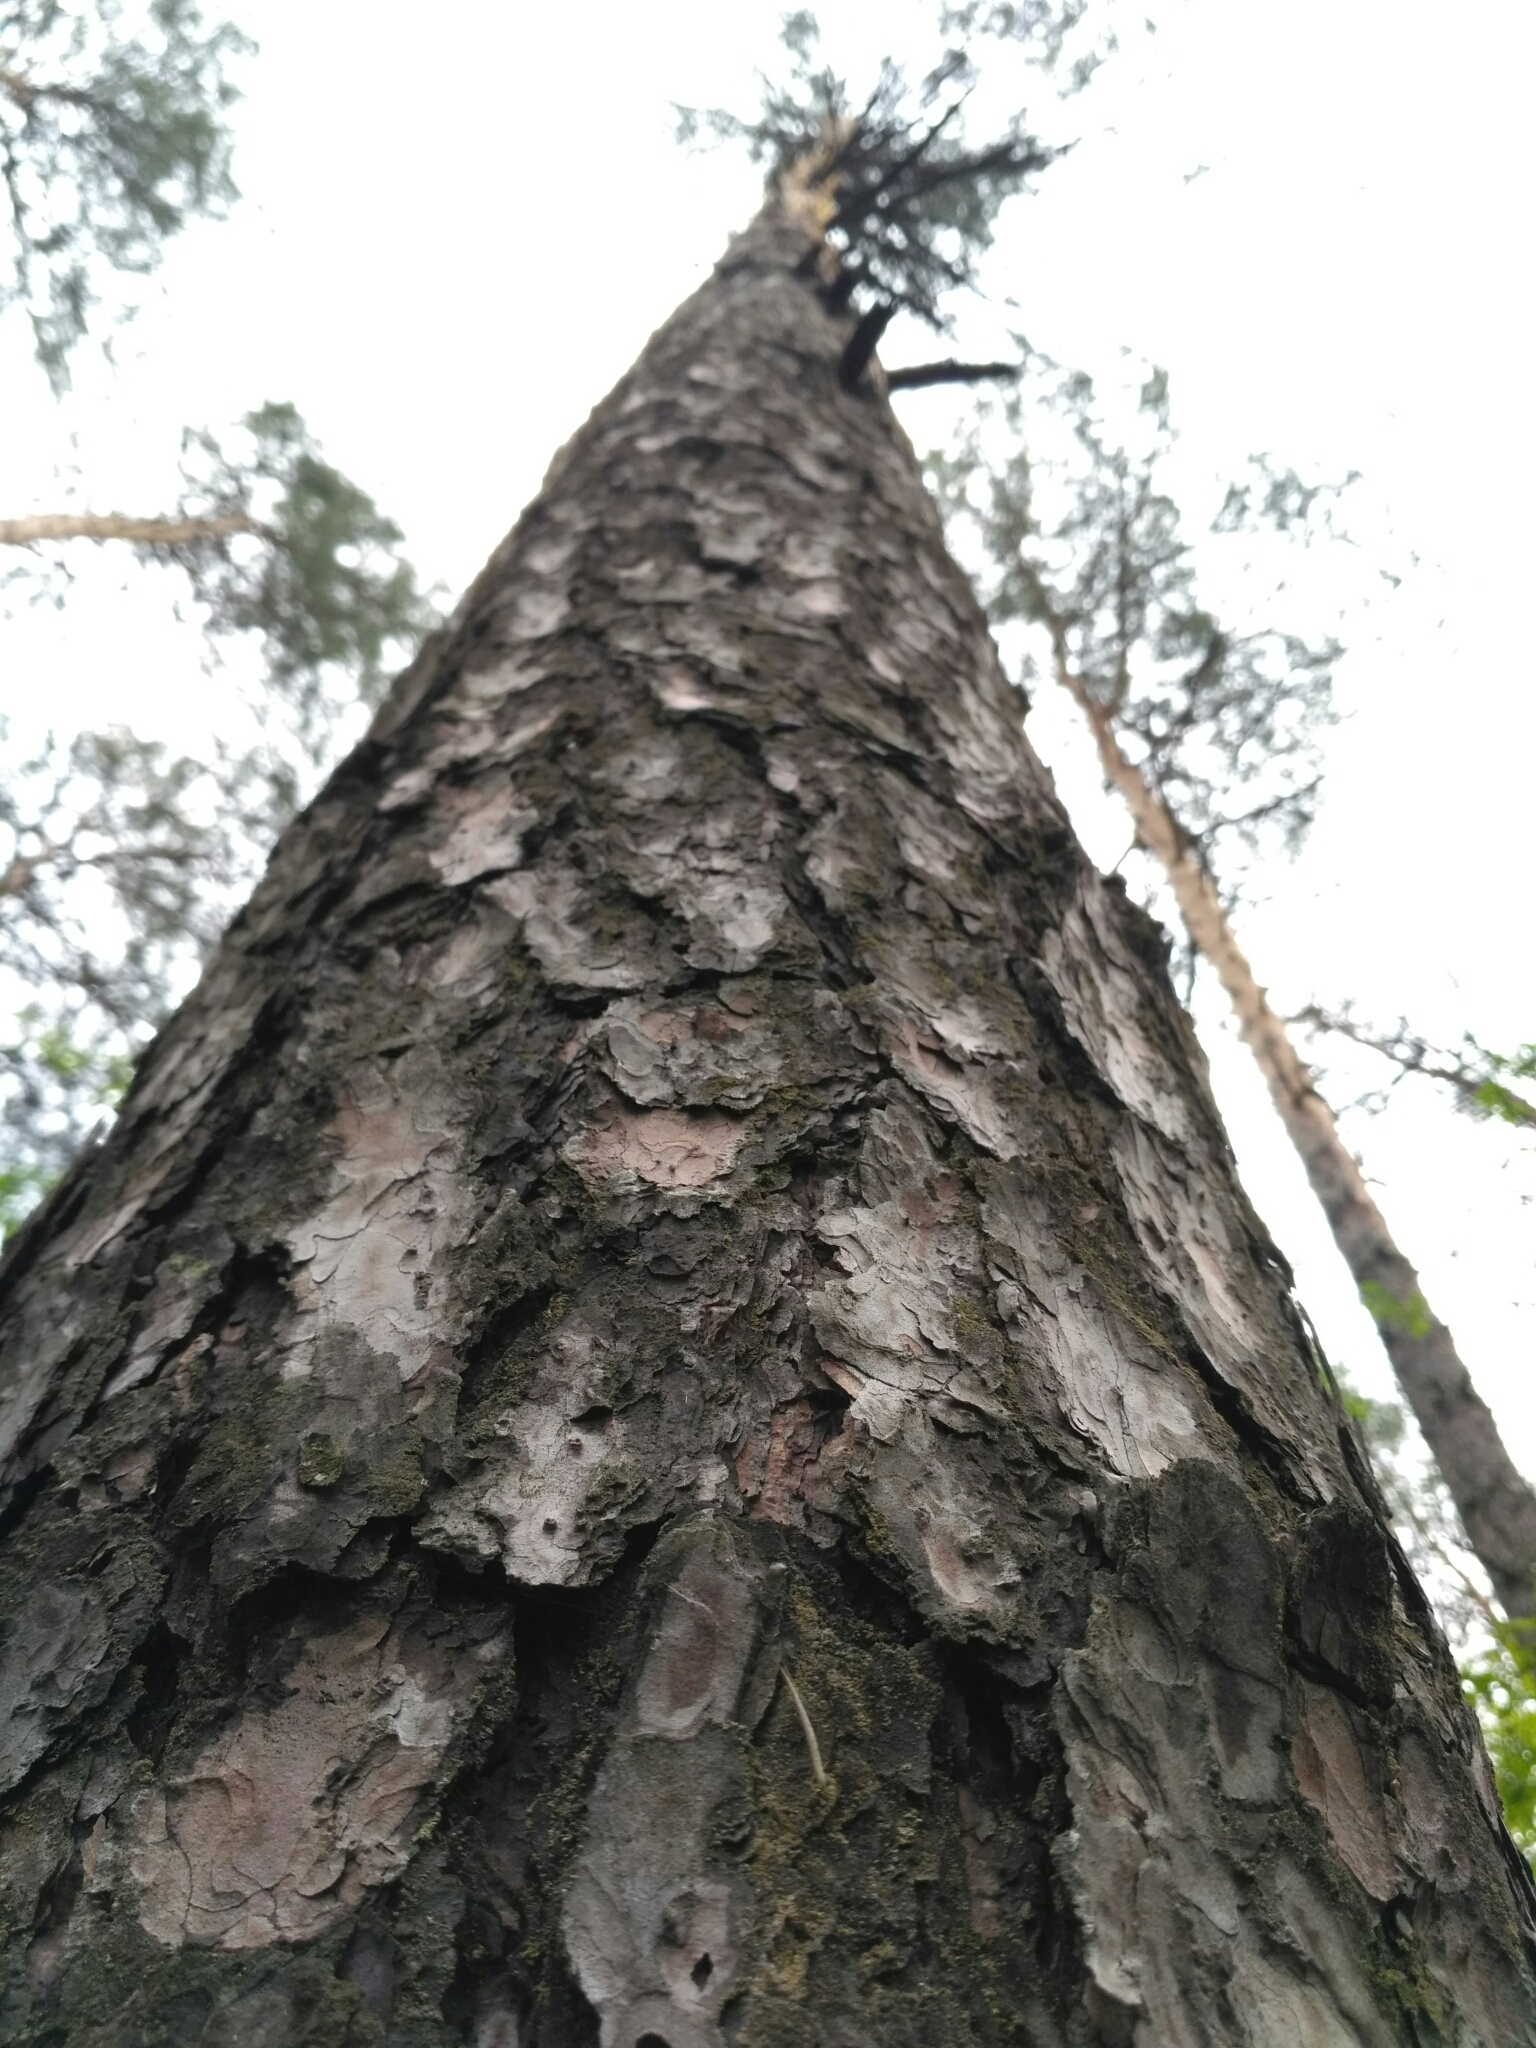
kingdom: Plantae
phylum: Tracheophyta
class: Pinopsida
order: Pinales
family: Pinaceae
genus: Pinus
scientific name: Pinus sylvestris
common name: Scots pine
